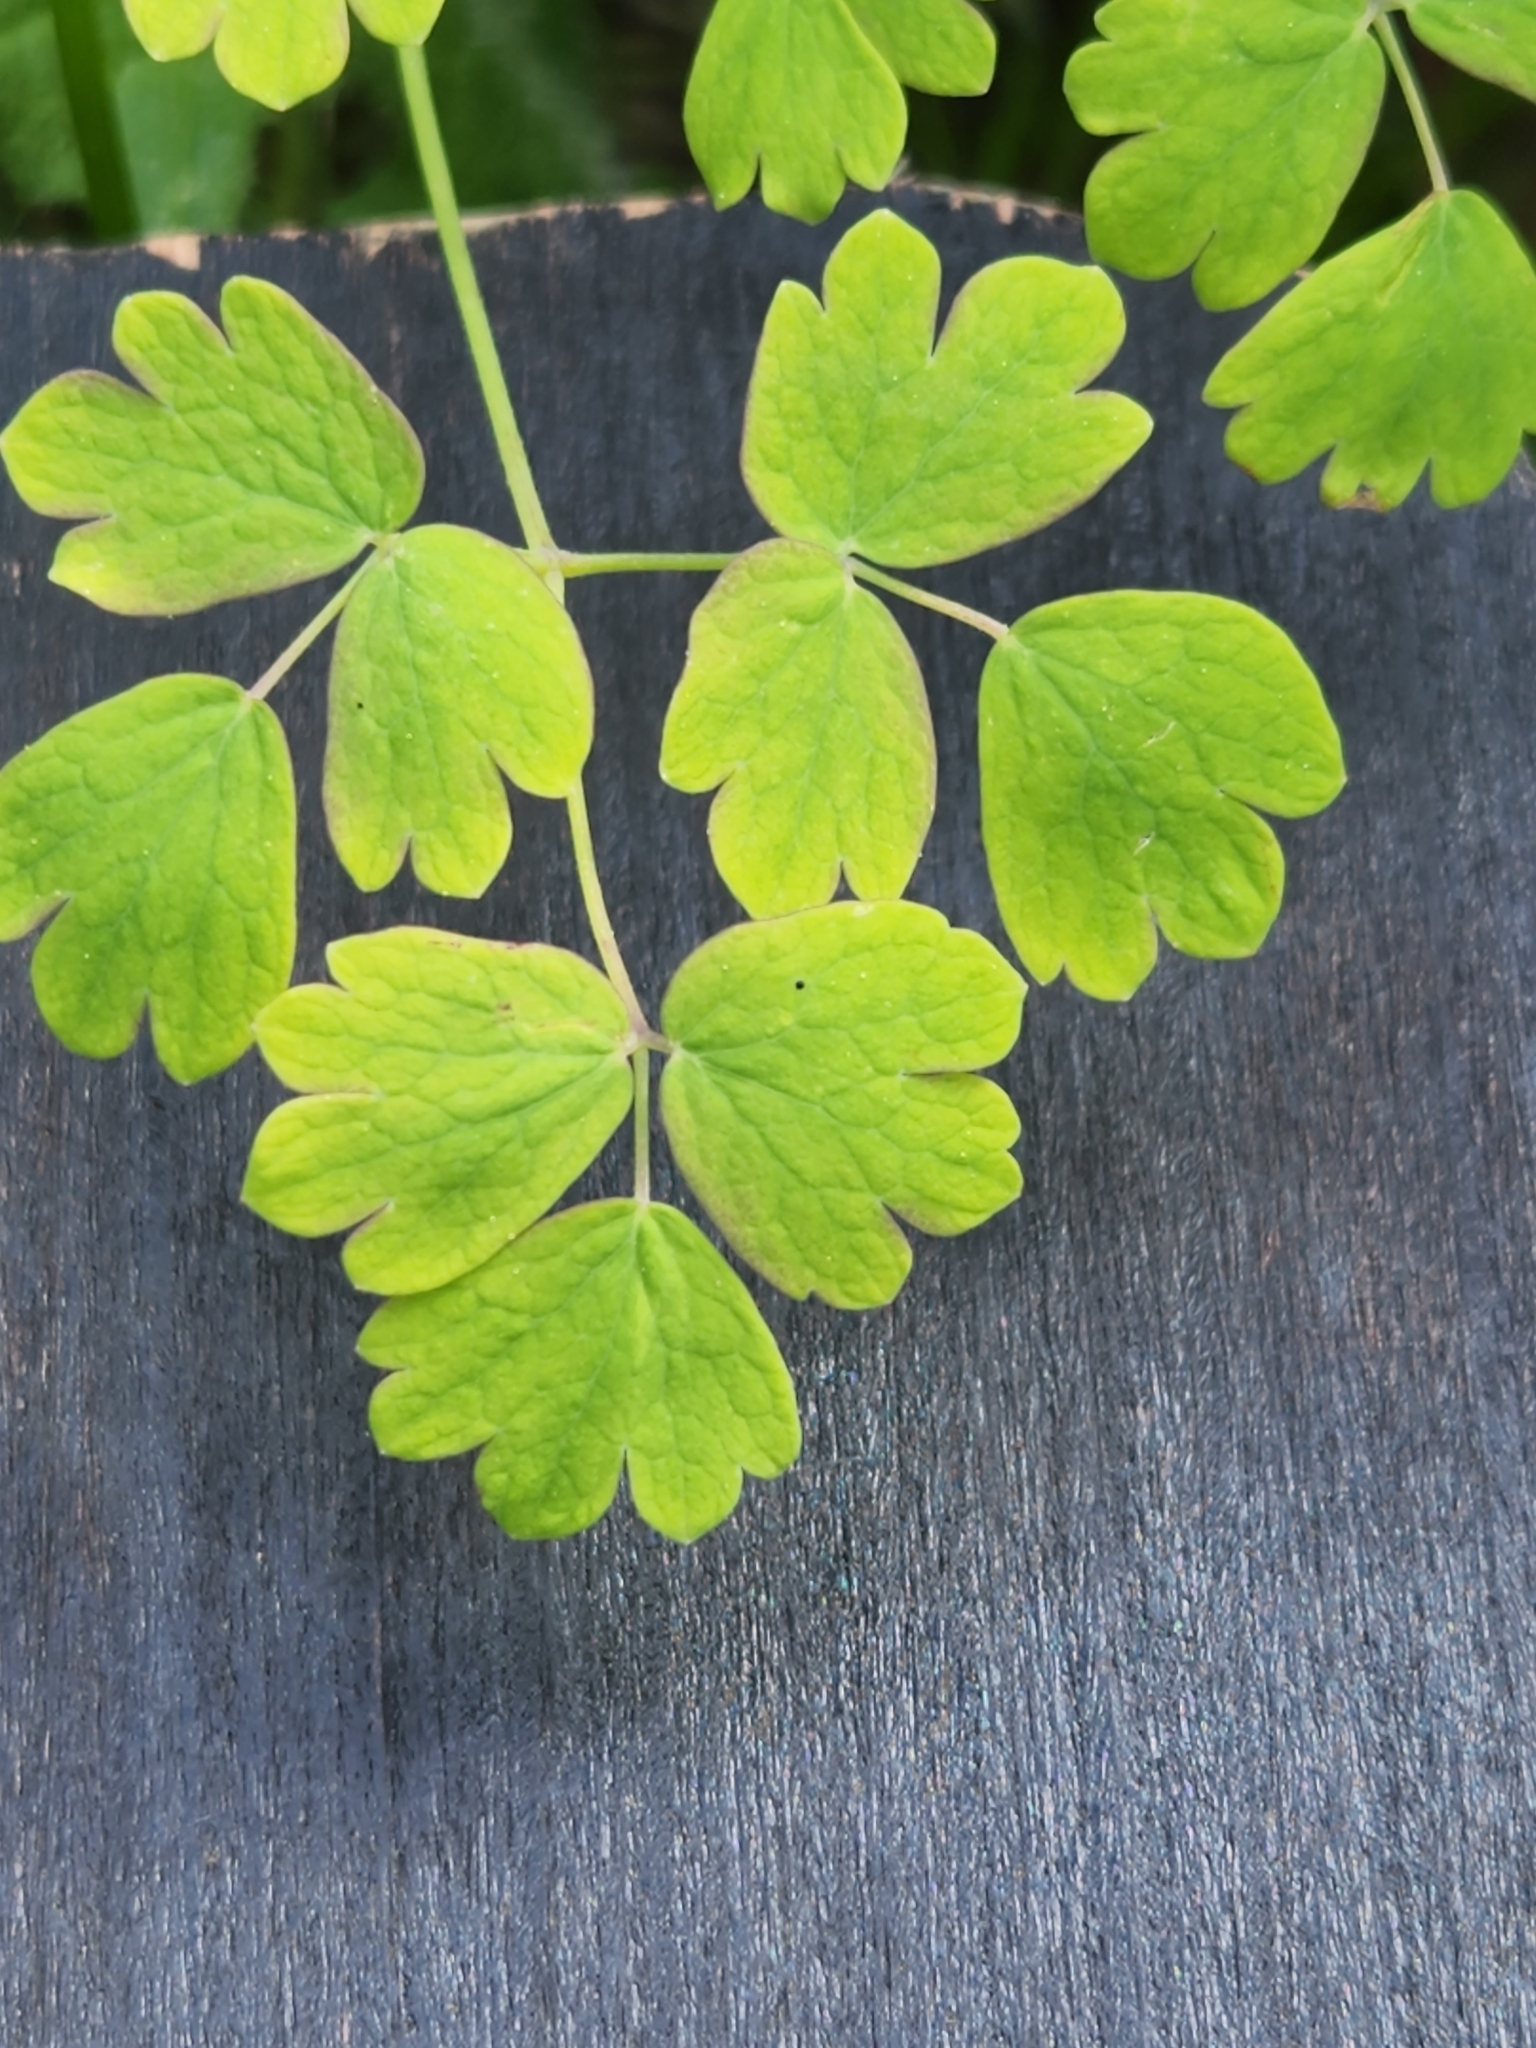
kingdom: Plantae
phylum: Tracheophyta
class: Magnoliopsida
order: Ranunculales
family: Ranunculaceae
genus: Thalictrum
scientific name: Thalictrum occidentale
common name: Western meadow-rue
